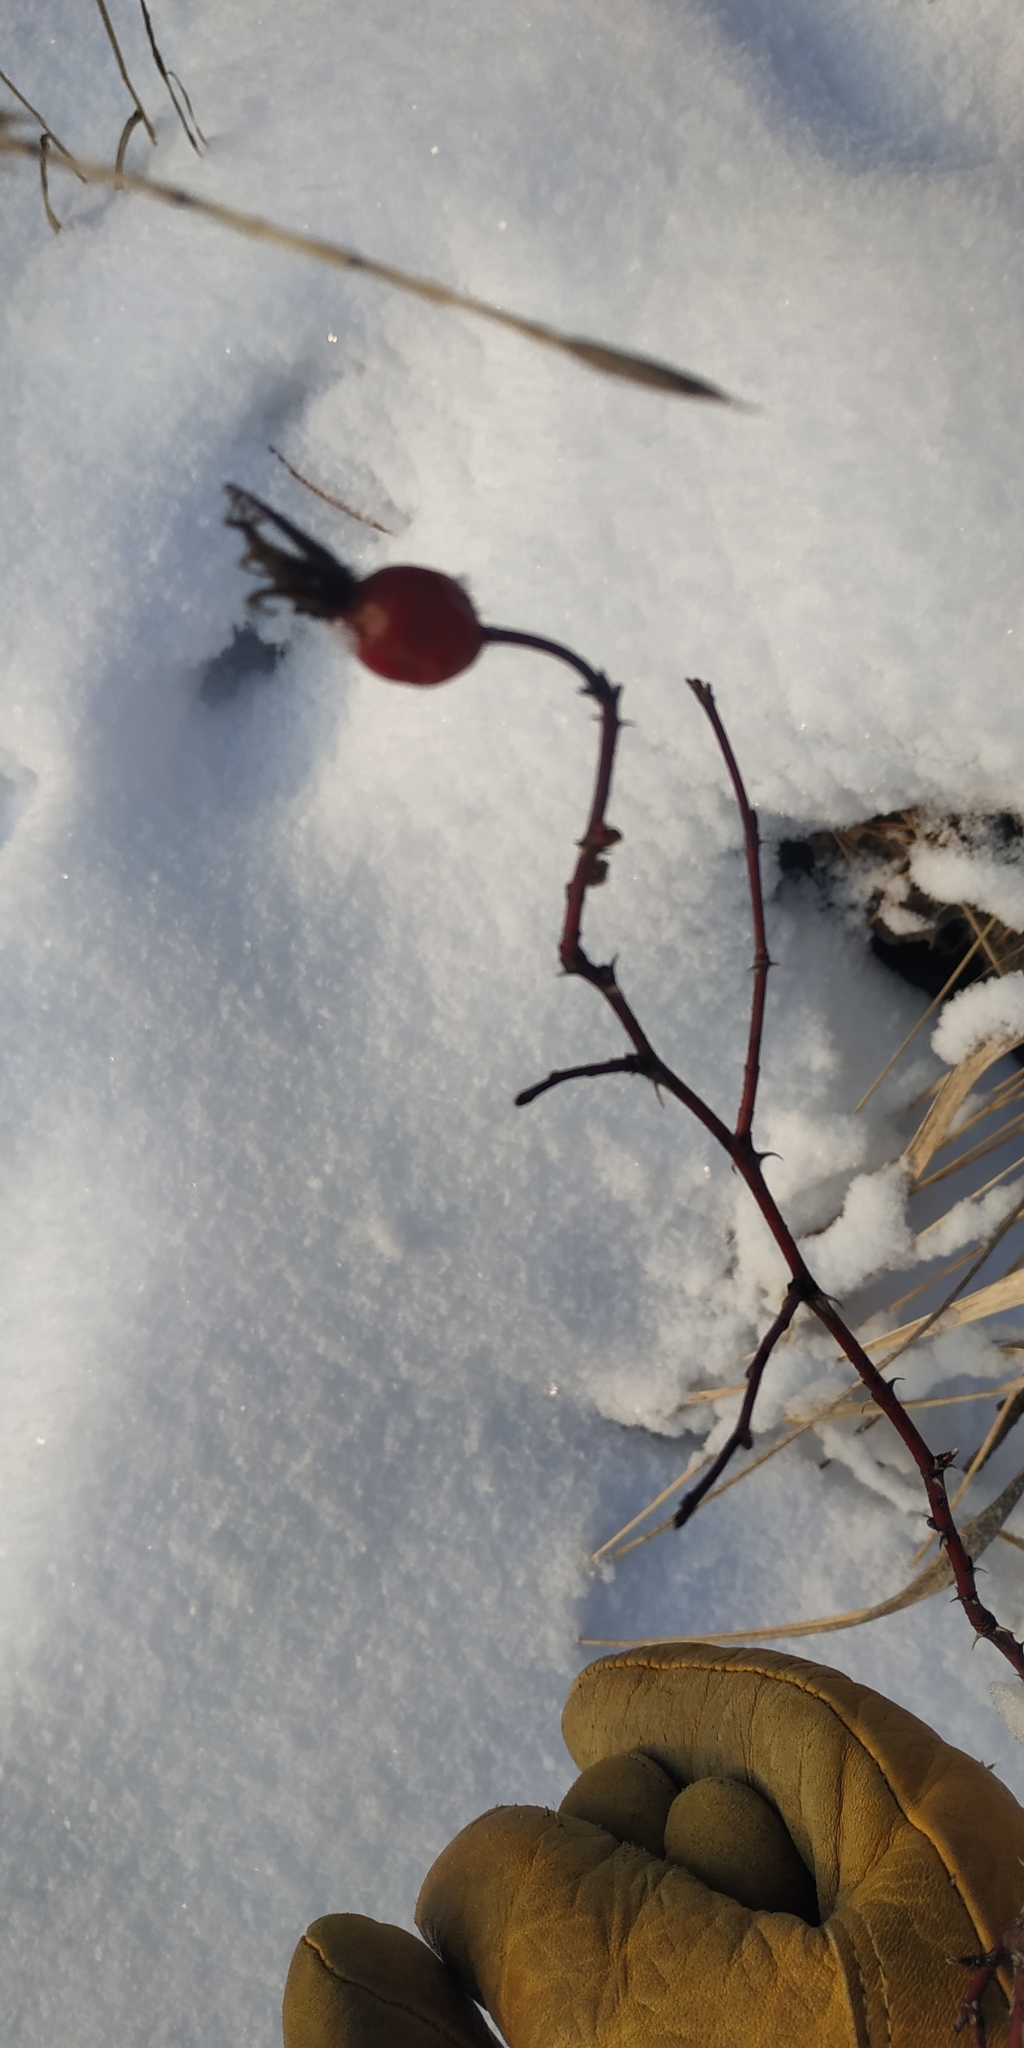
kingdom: Plantae
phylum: Tracheophyta
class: Magnoliopsida
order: Rosales
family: Rosaceae
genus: Rosa
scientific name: Rosa majalis
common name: Cinnamon rose
